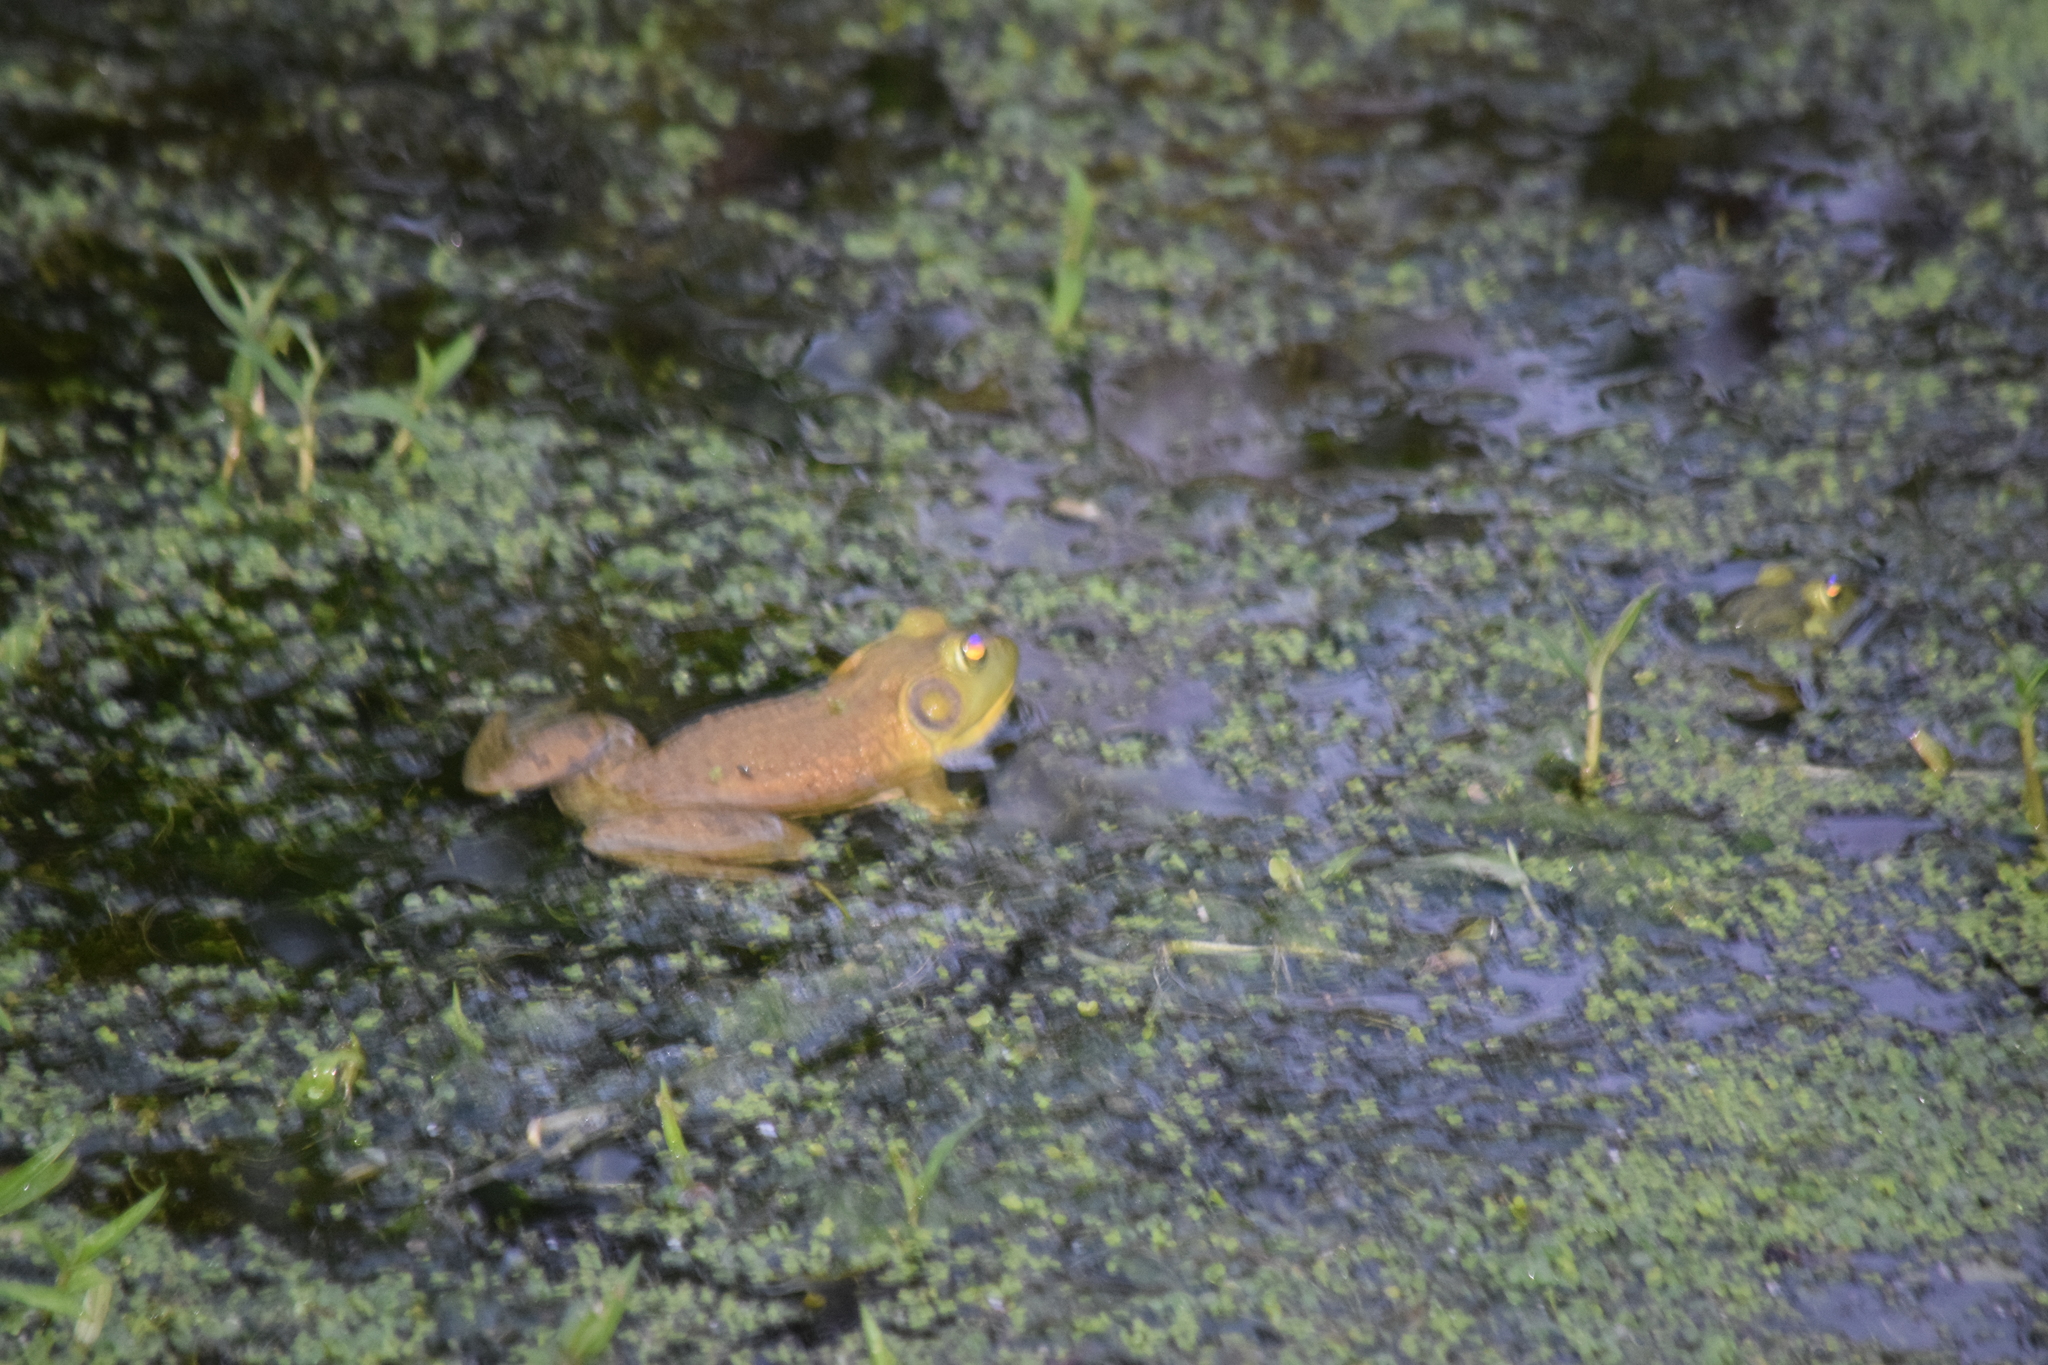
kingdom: Animalia
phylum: Chordata
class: Amphibia
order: Anura
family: Ranidae
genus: Lithobates
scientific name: Lithobates catesbeianus
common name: American bullfrog
